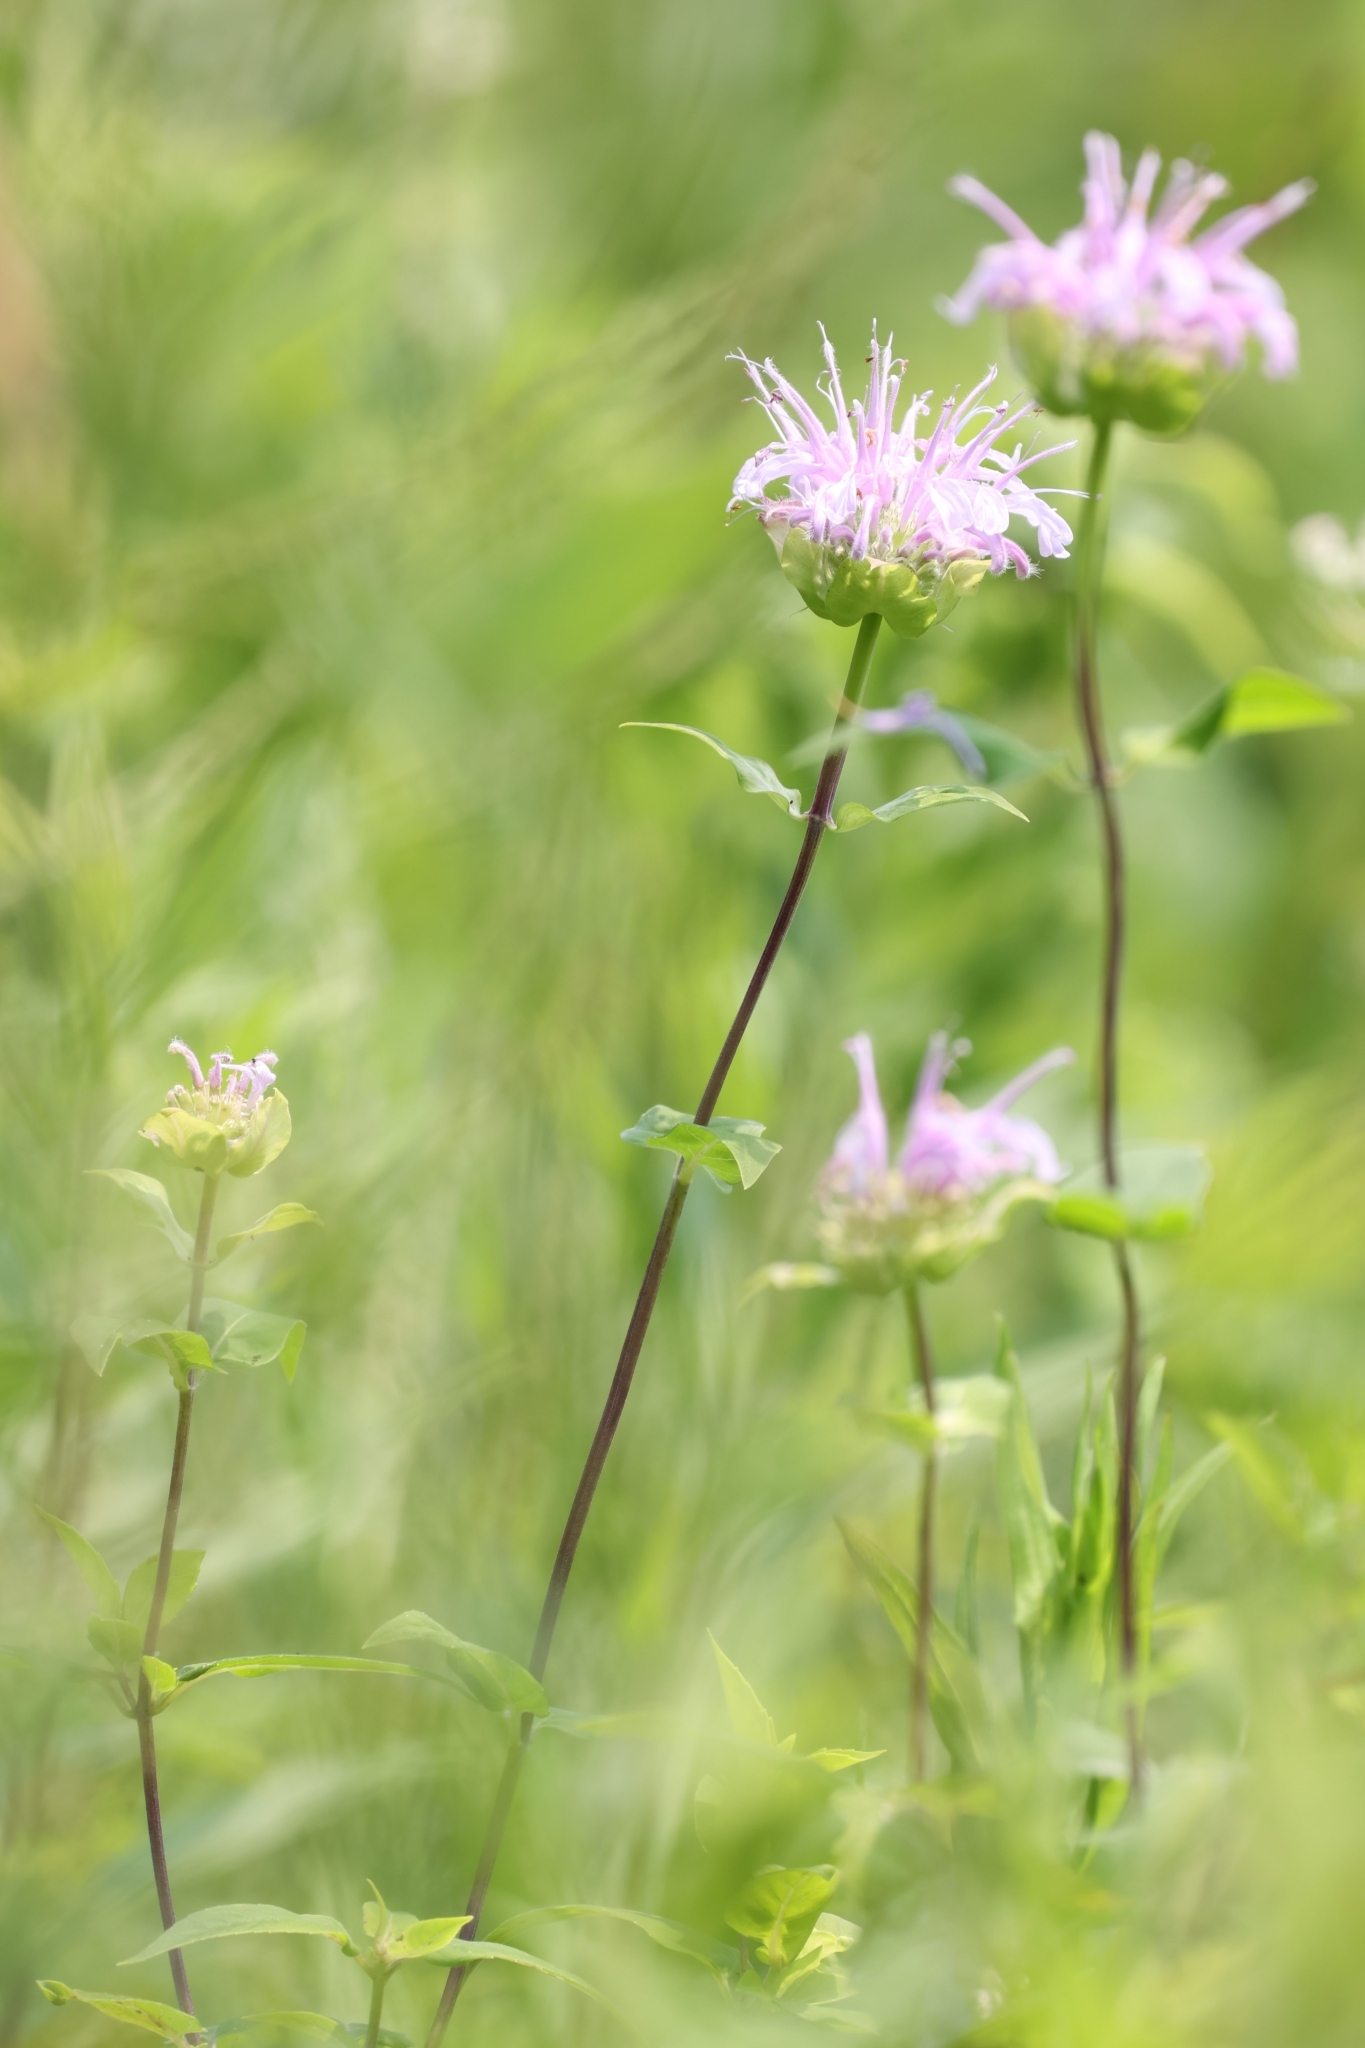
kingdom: Plantae
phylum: Tracheophyta
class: Magnoliopsida
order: Lamiales
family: Lamiaceae
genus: Monarda
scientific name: Monarda fistulosa
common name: Purple beebalm
